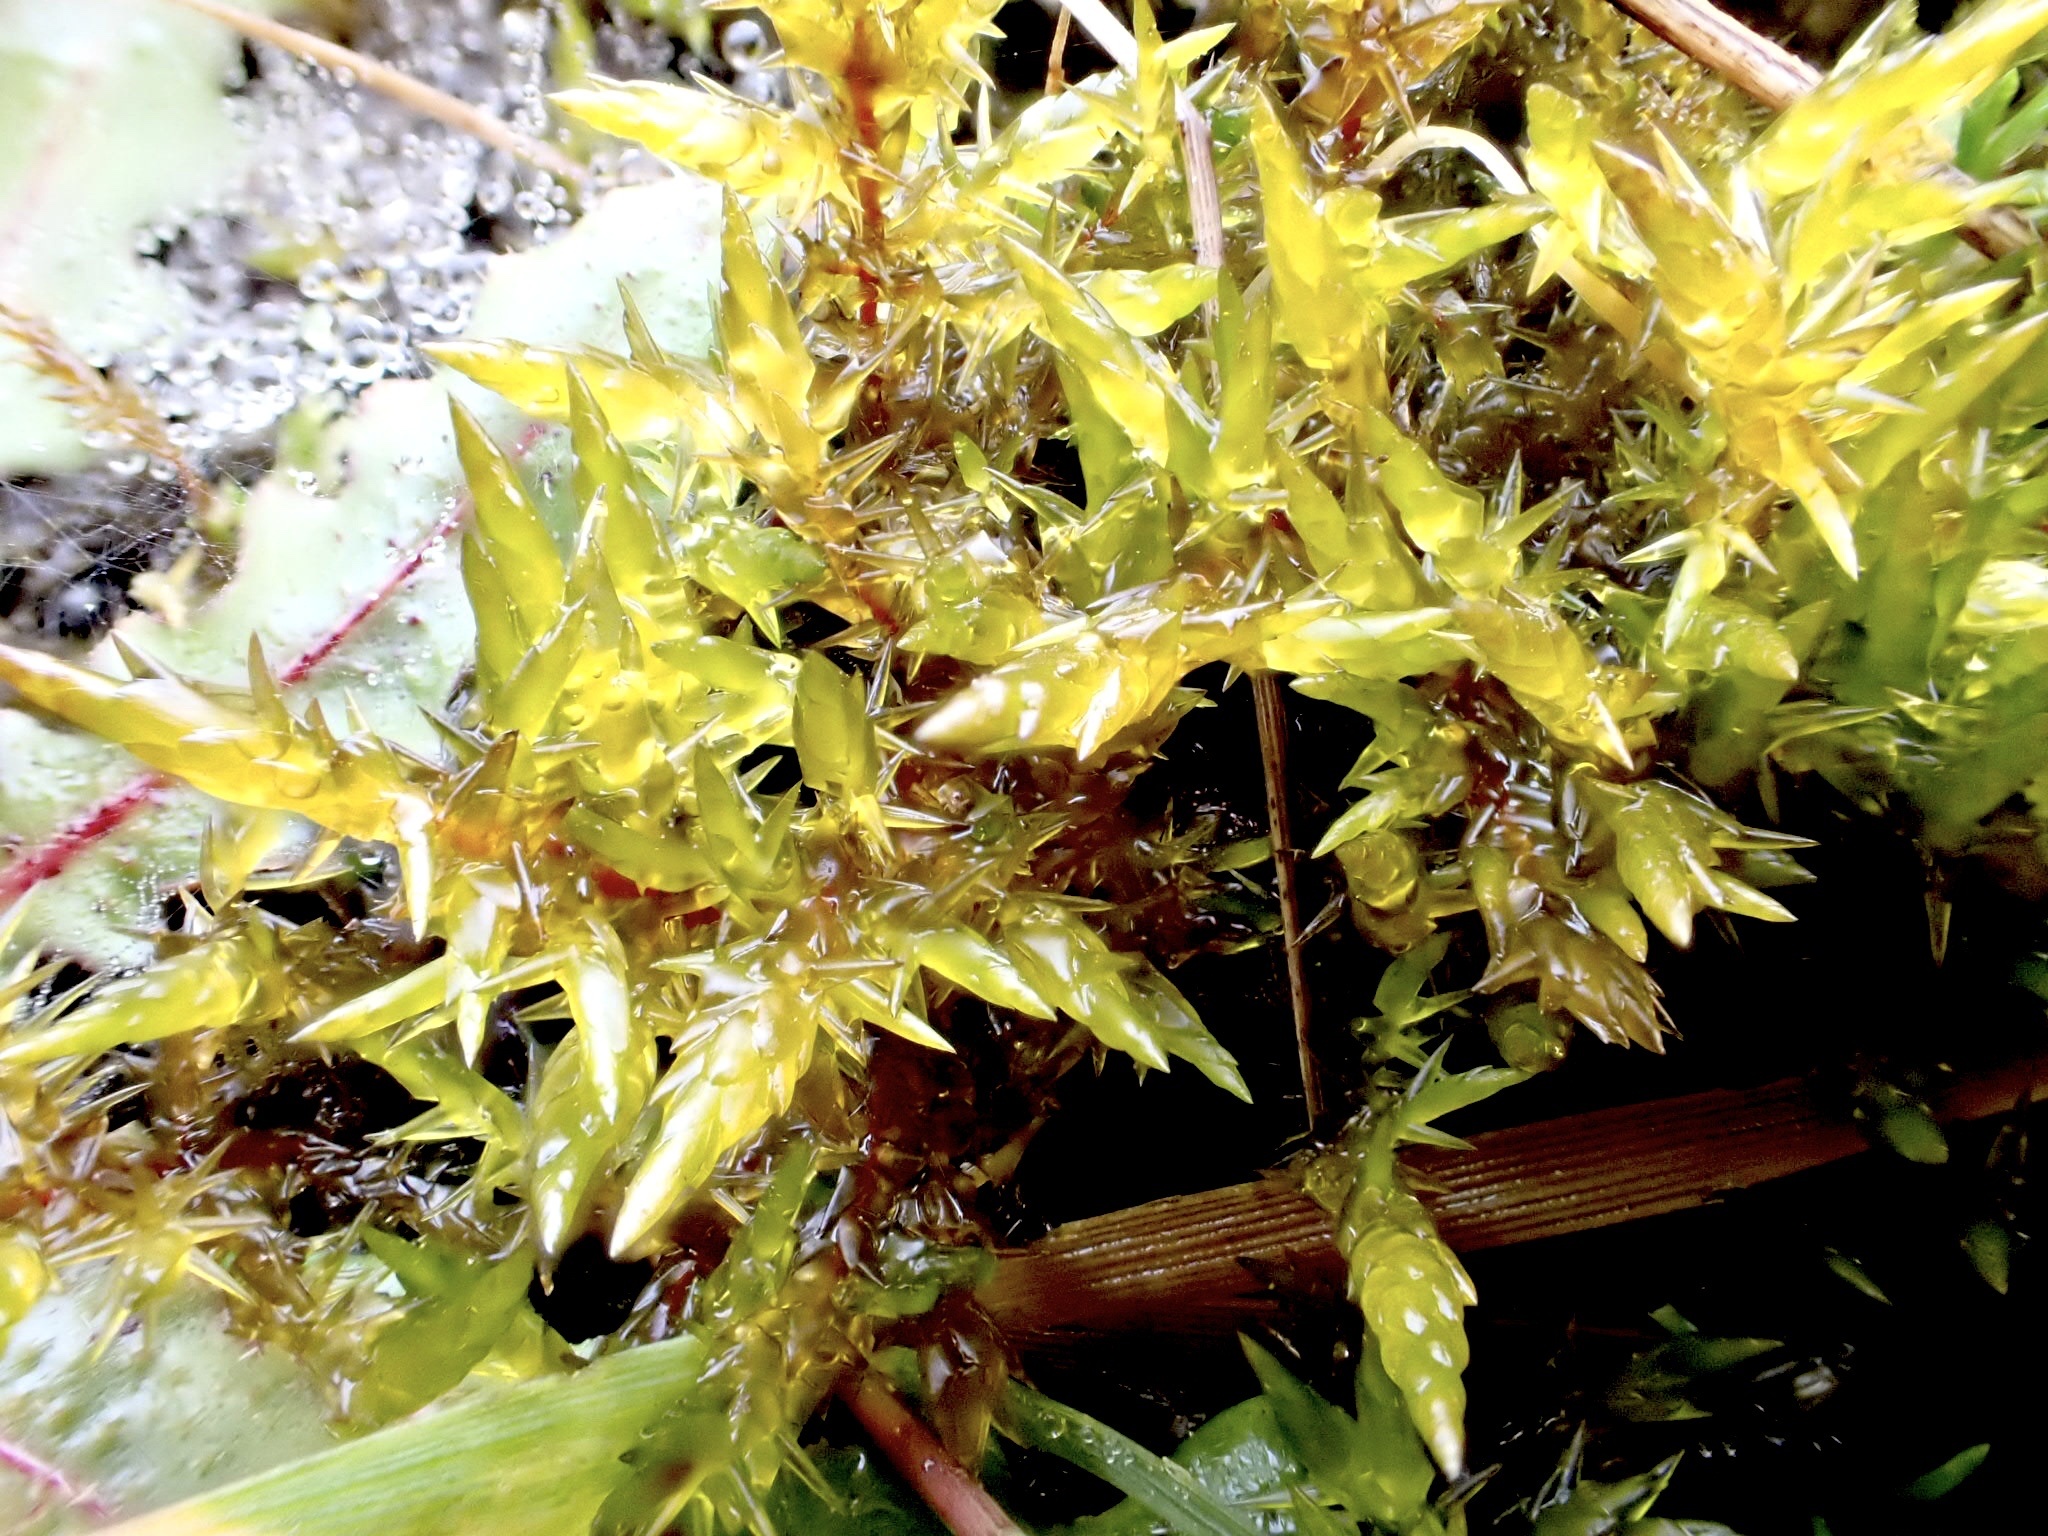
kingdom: Plantae
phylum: Bryophyta
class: Bryopsida
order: Hypnales
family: Pylaisiaceae
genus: Calliergonella
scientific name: Calliergonella cuspidata
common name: Common large wetland moss
